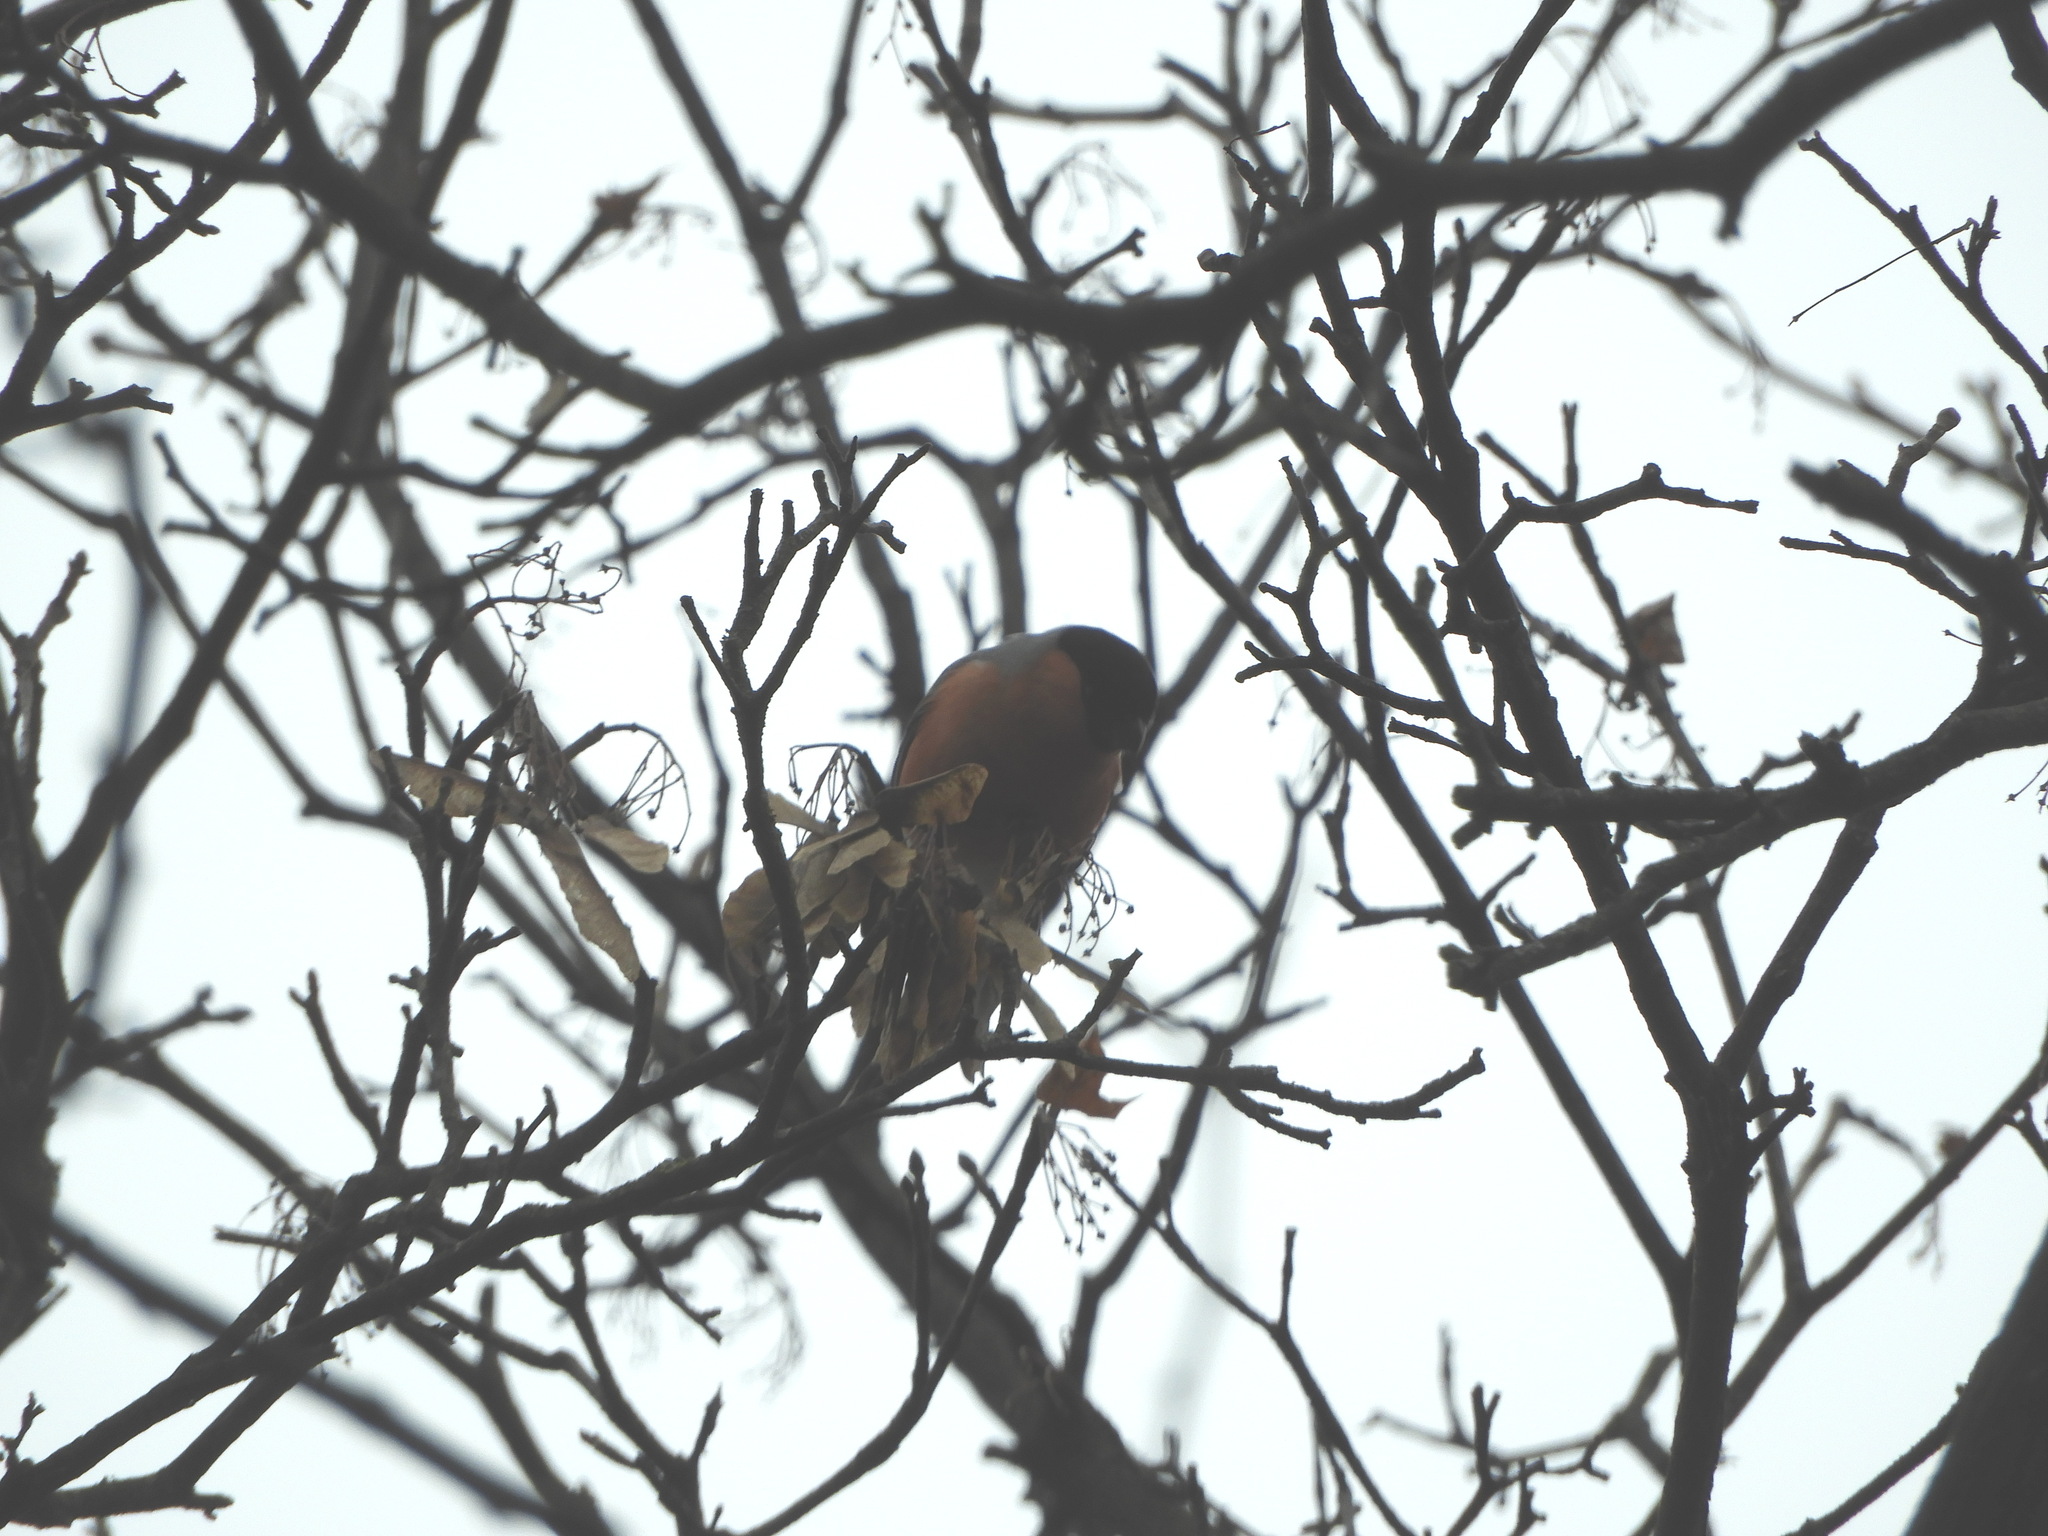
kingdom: Animalia
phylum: Chordata
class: Aves
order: Passeriformes
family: Fringillidae
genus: Pyrrhula
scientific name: Pyrrhula pyrrhula
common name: Eurasian bullfinch
